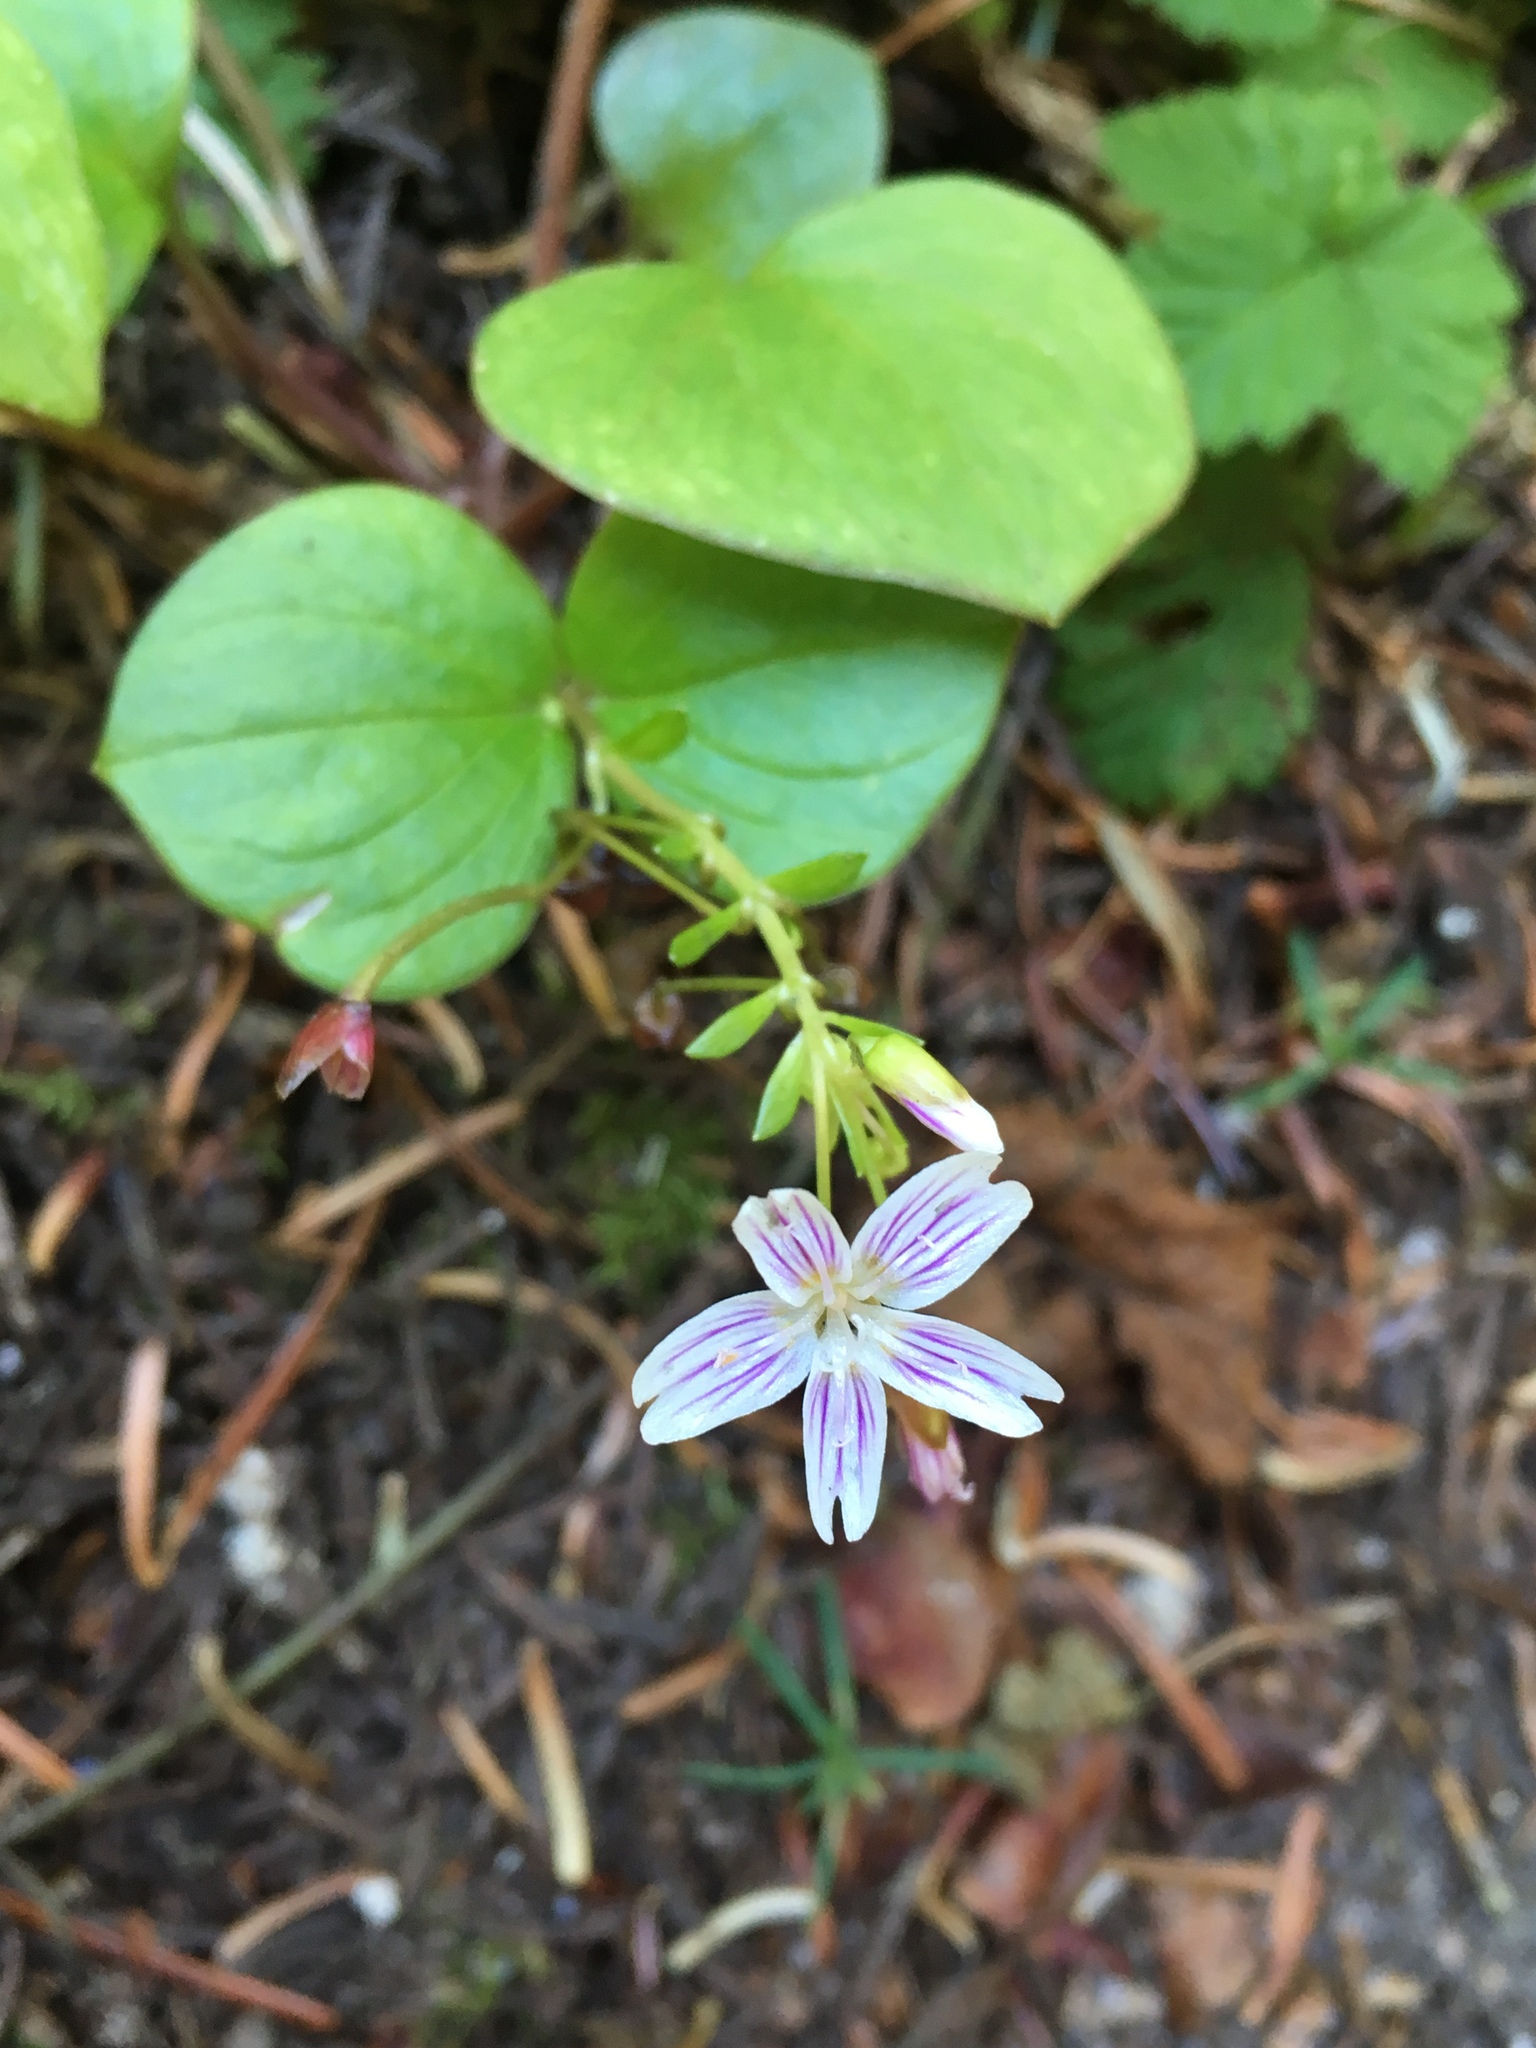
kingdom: Plantae
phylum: Tracheophyta
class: Magnoliopsida
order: Caryophyllales
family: Montiaceae
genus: Claytonia
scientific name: Claytonia sibirica
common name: Pink purslane
